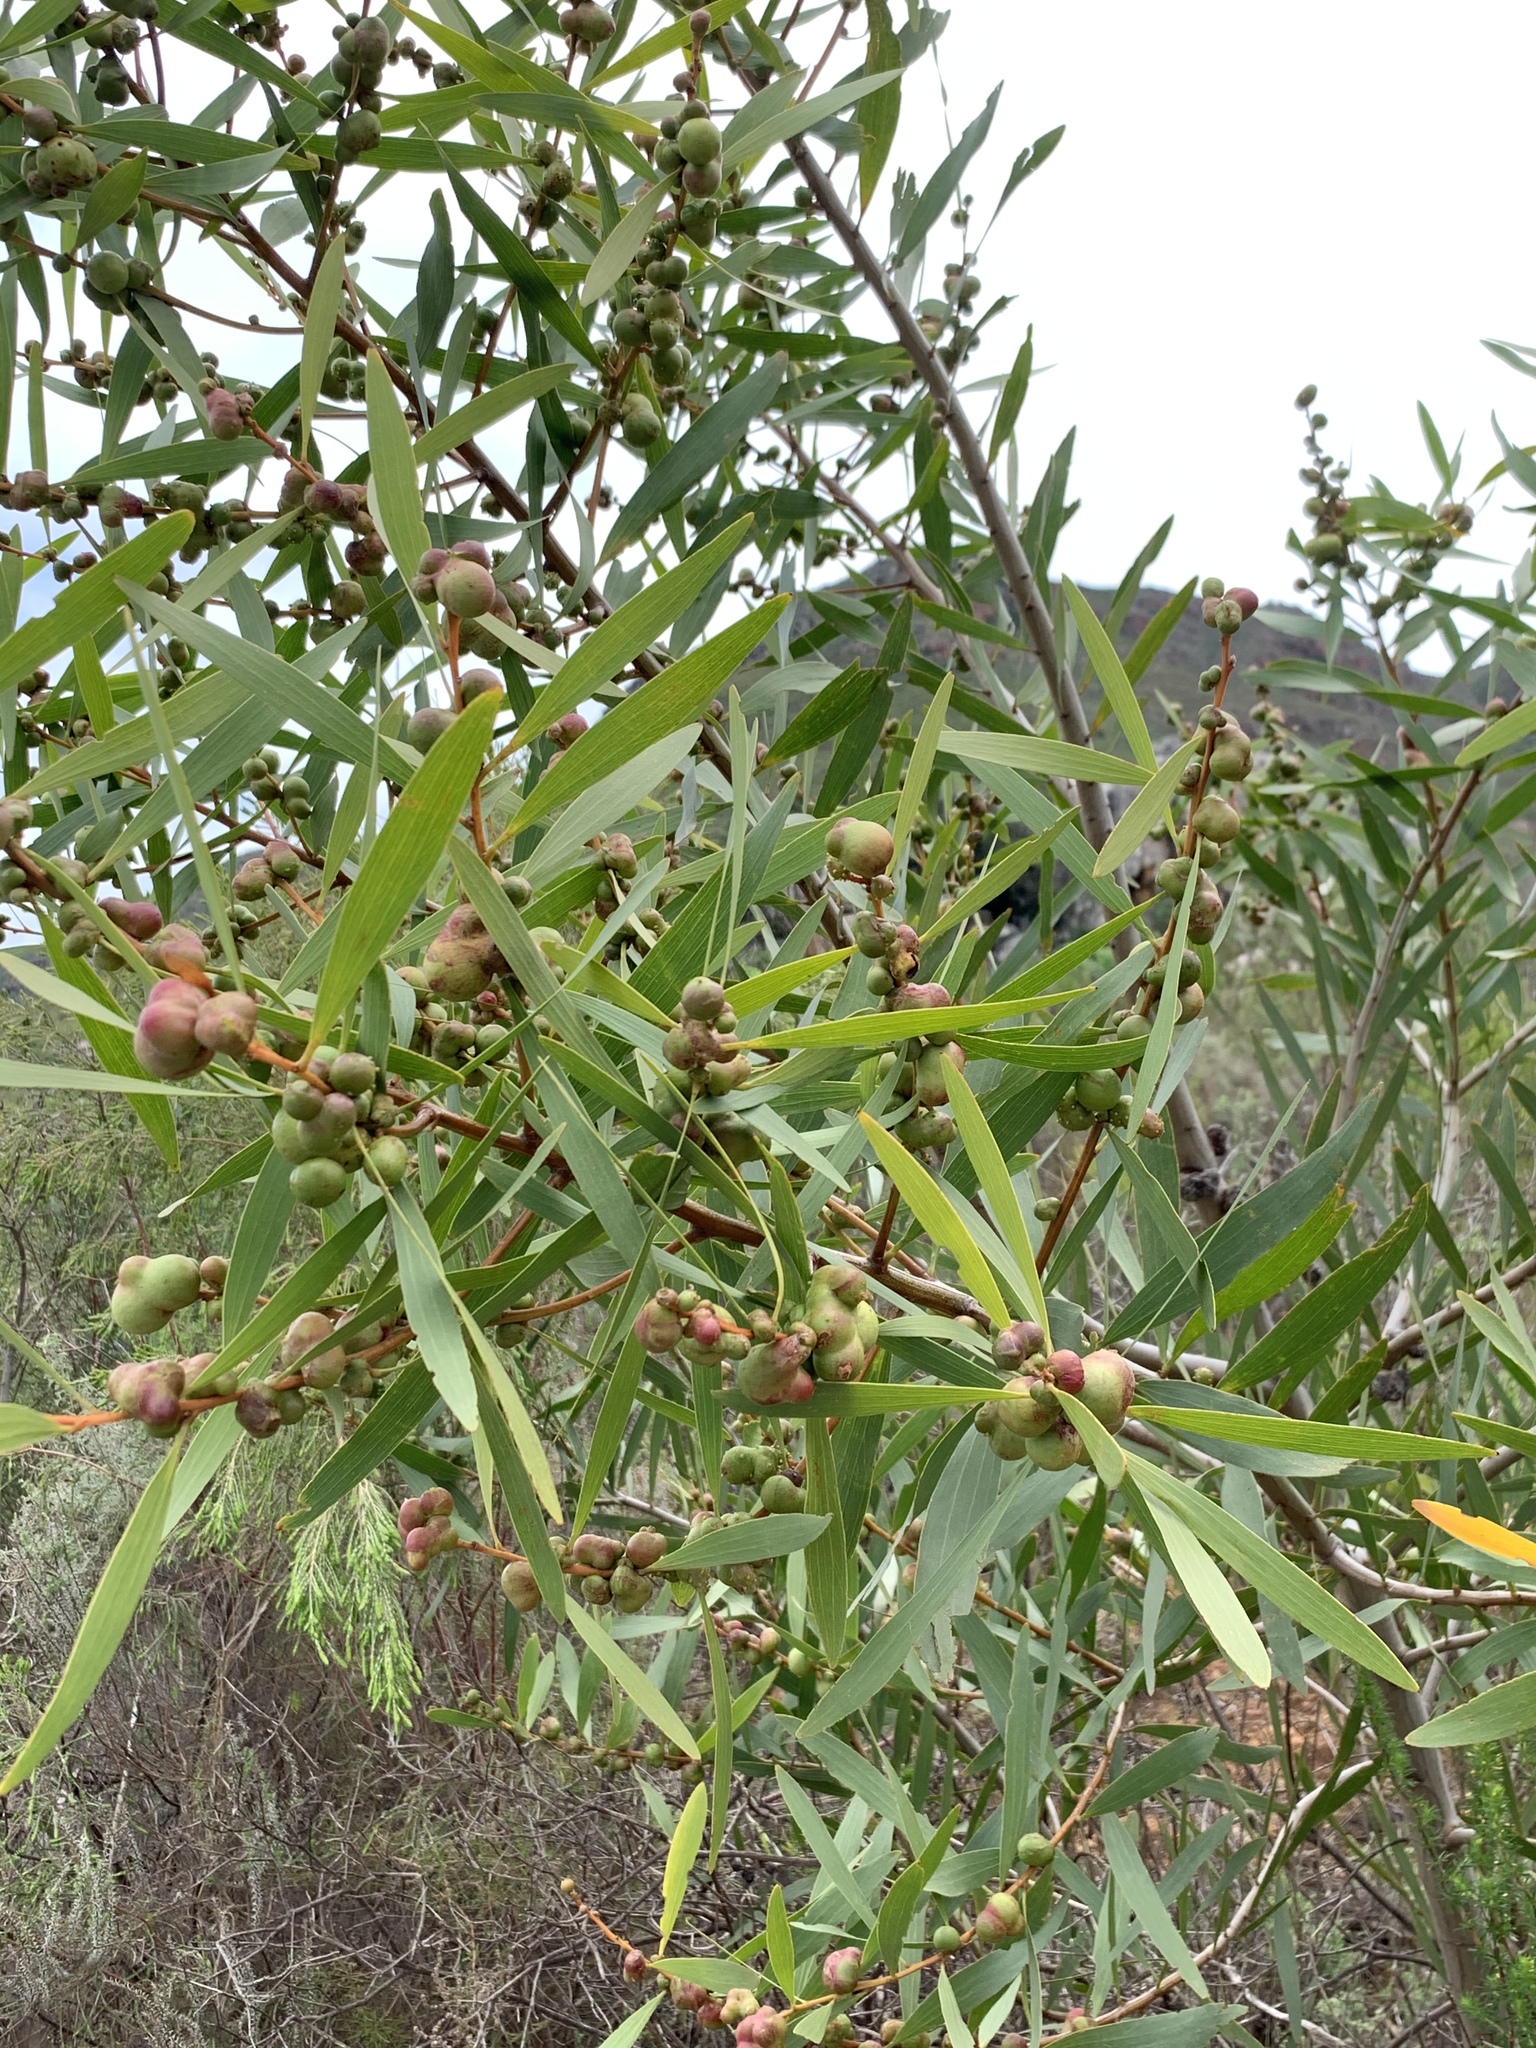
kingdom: Animalia
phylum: Arthropoda
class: Insecta
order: Hymenoptera
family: Pteromalidae
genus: Trichilogaster
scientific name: Trichilogaster acaciaelongifoliae
